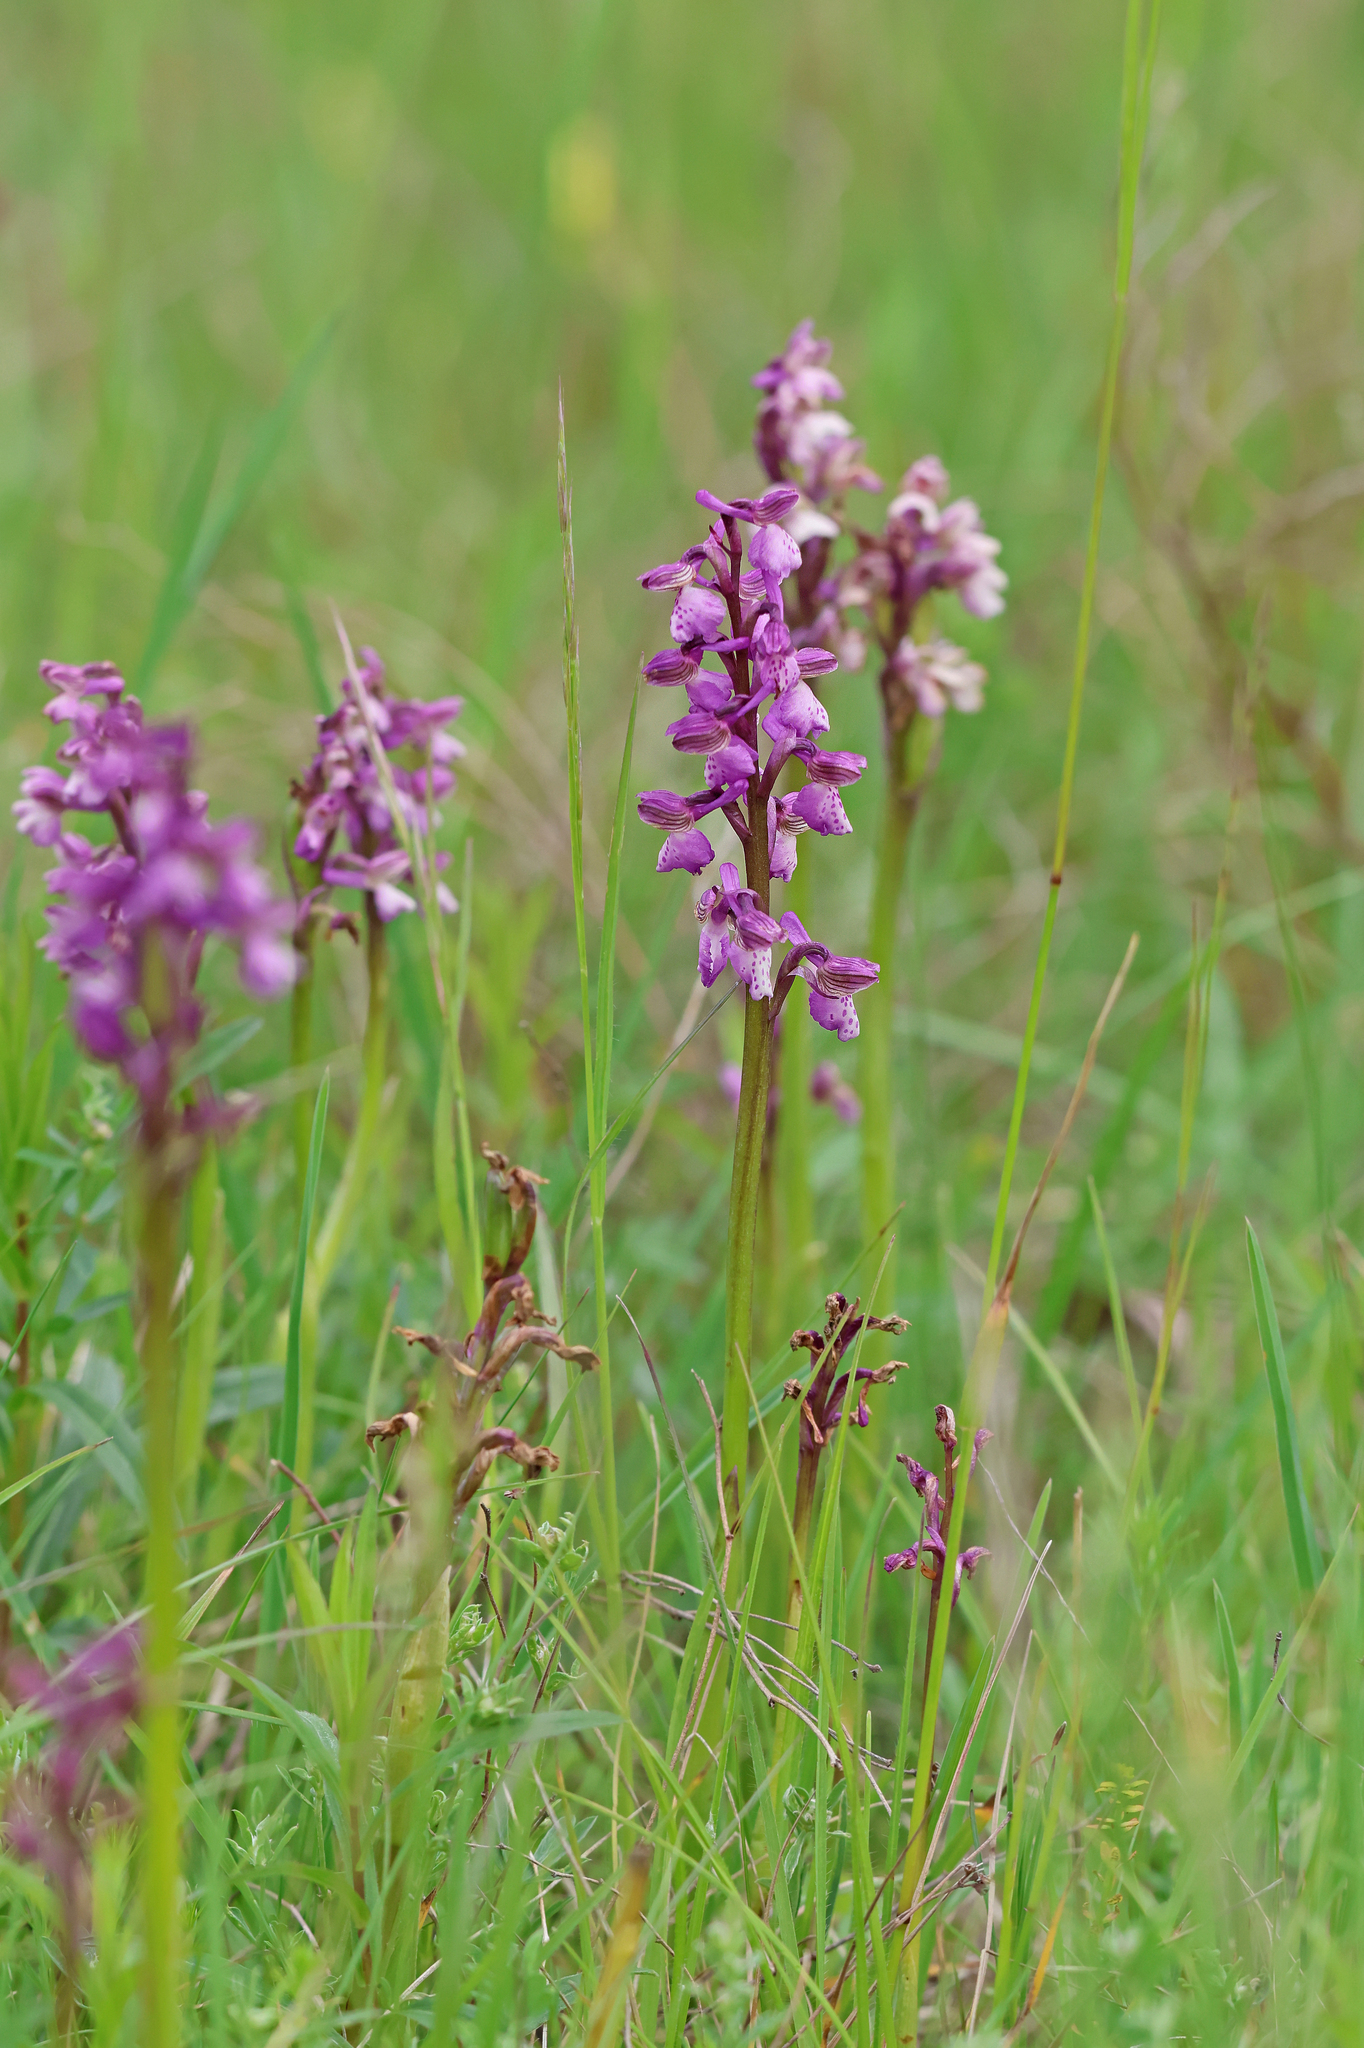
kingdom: Plantae
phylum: Tracheophyta
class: Liliopsida
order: Asparagales
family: Orchidaceae
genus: Anacamptis
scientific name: Anacamptis morio
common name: Green-winged orchid
